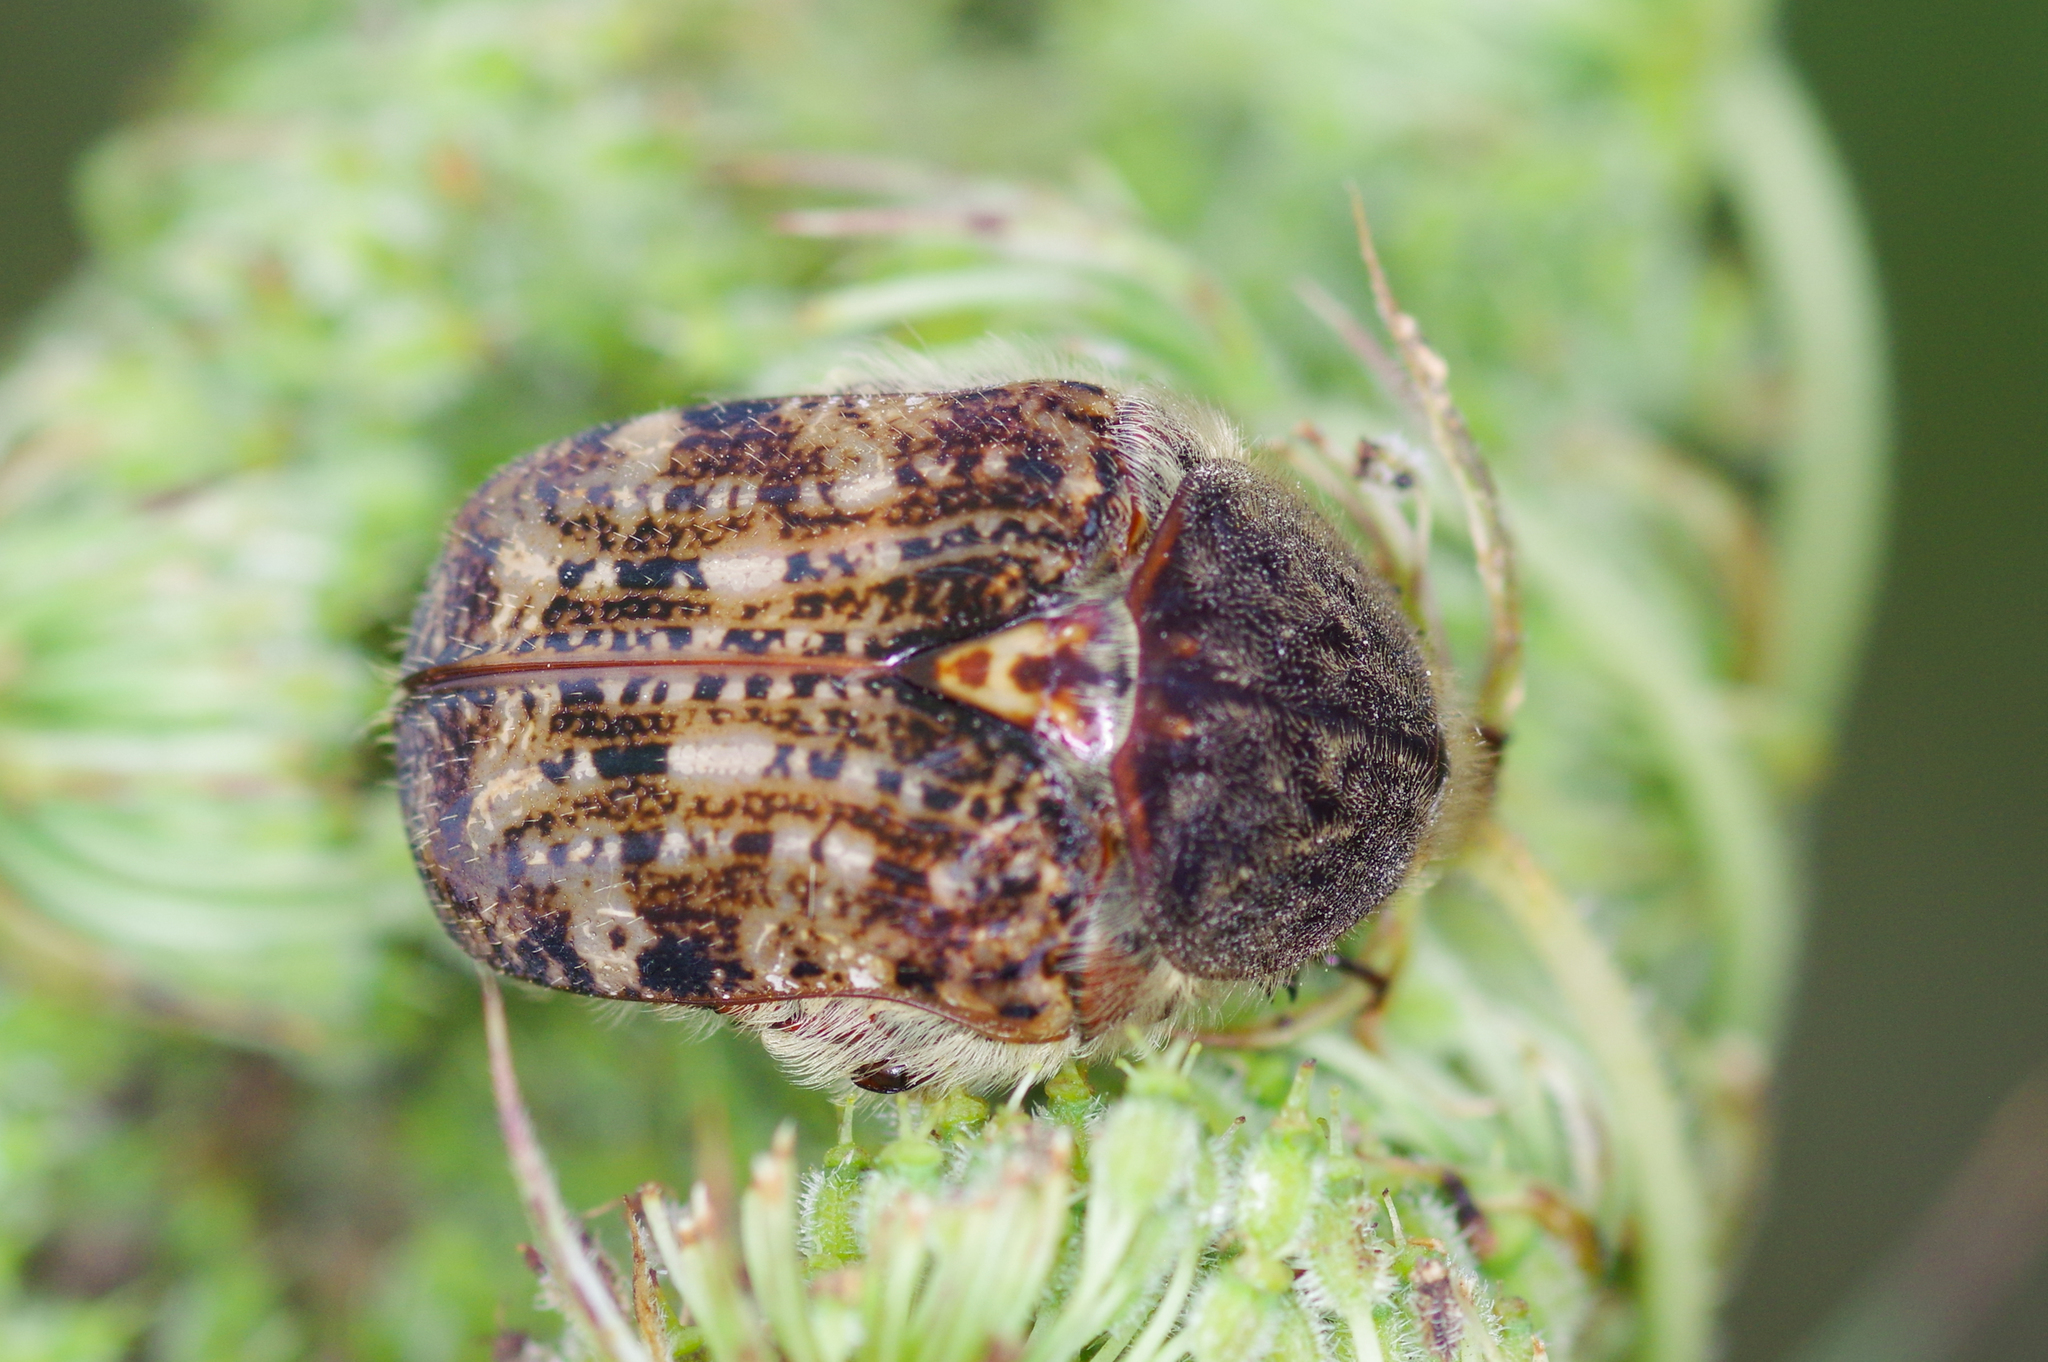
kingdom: Animalia
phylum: Arthropoda
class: Insecta
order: Coleoptera
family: Scarabaeidae
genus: Euphoria
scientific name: Euphoria inda
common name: Bumble flower beetle
